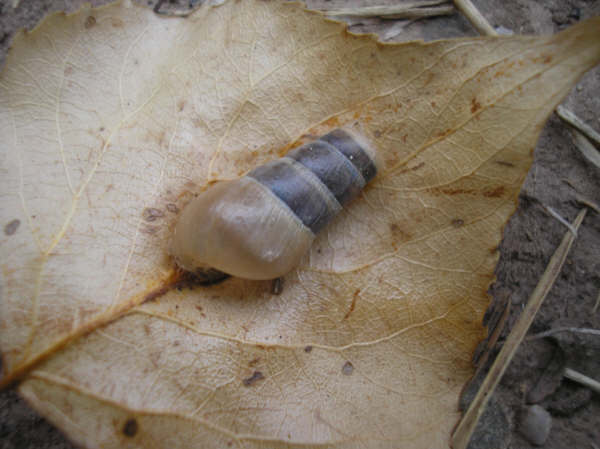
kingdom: Animalia
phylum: Mollusca
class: Gastropoda
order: Stylommatophora
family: Achatinidae
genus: Rumina
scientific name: Rumina decollata
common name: Decollate snail
